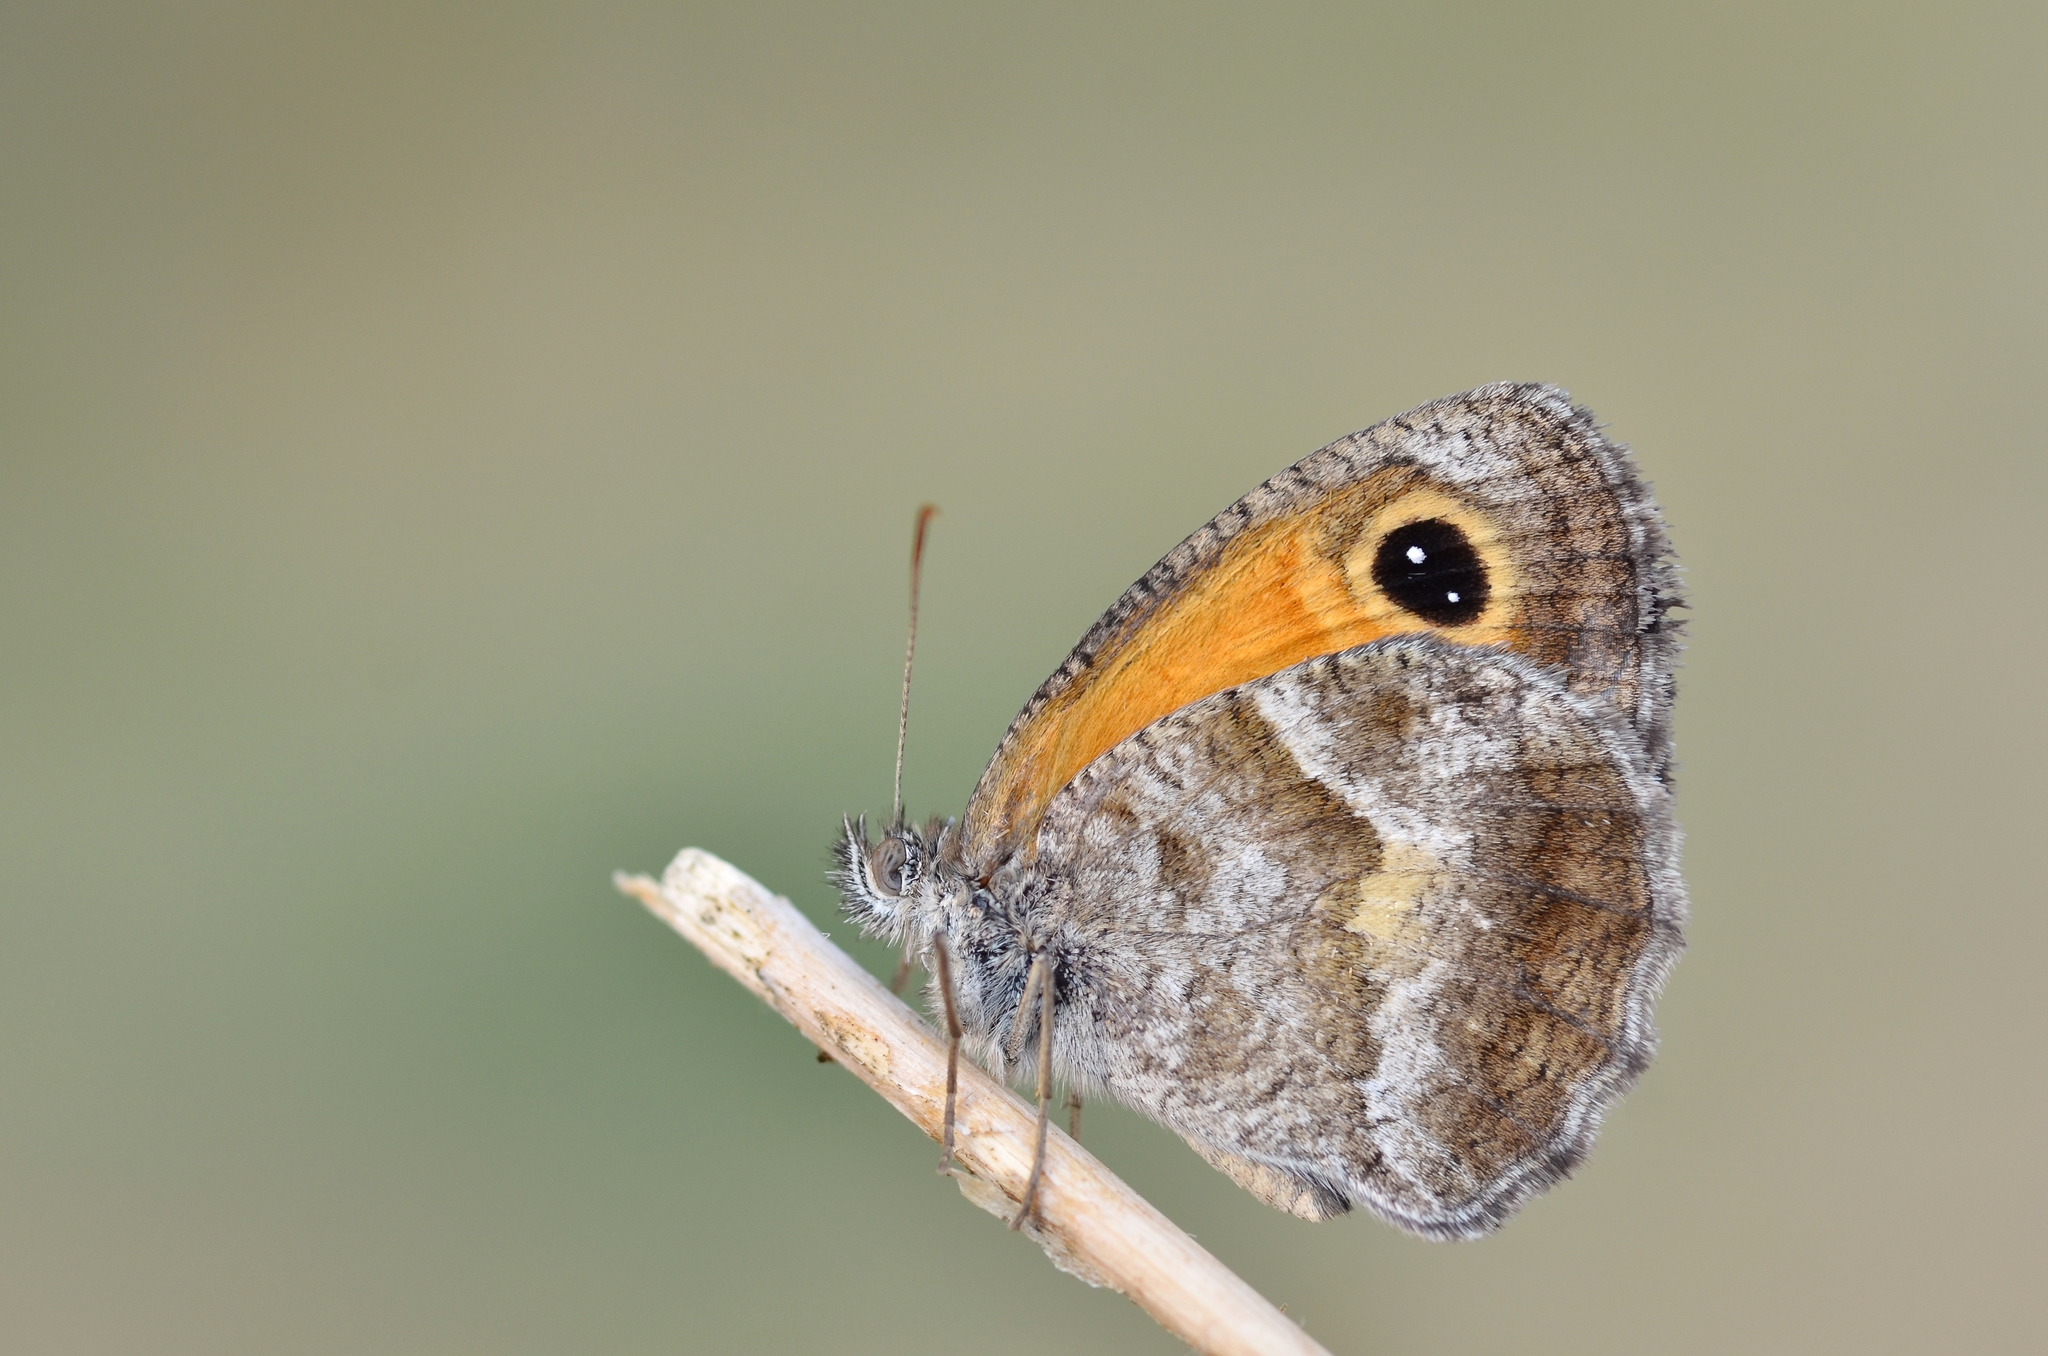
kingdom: Animalia
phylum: Arthropoda
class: Insecta
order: Lepidoptera
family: Nymphalidae
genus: Pyronia
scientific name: Pyronia cecilia
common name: Southern gatekeeper
